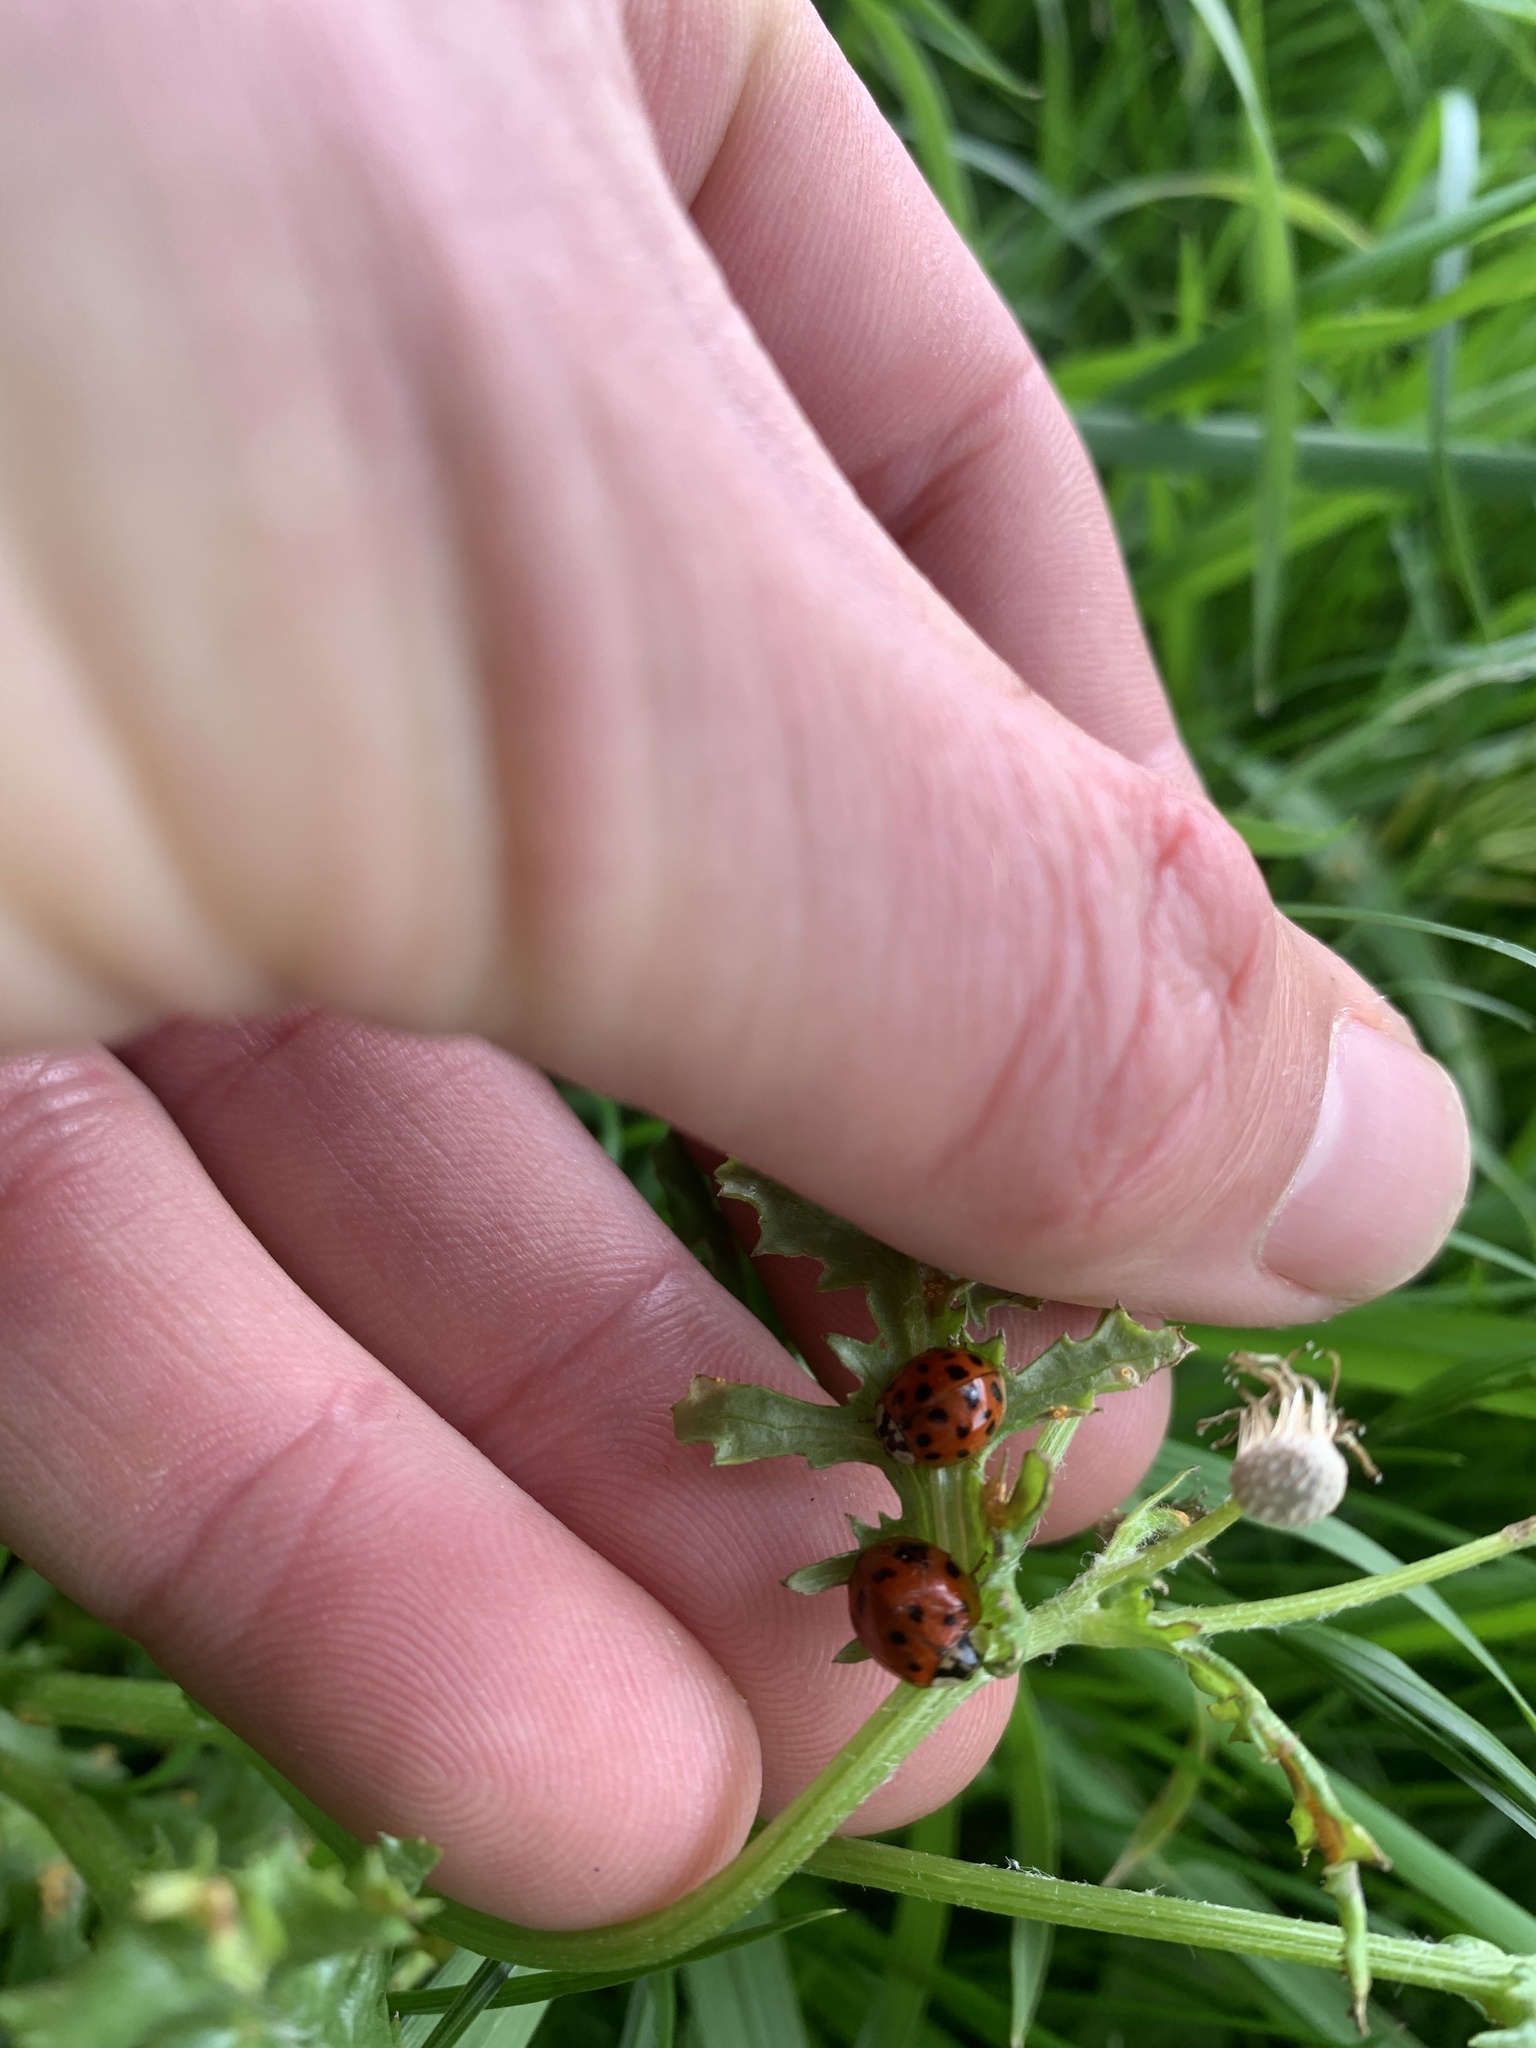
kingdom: Animalia
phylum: Arthropoda
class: Insecta
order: Coleoptera
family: Coccinellidae
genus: Harmonia
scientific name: Harmonia axyridis
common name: Harlequin ladybird
